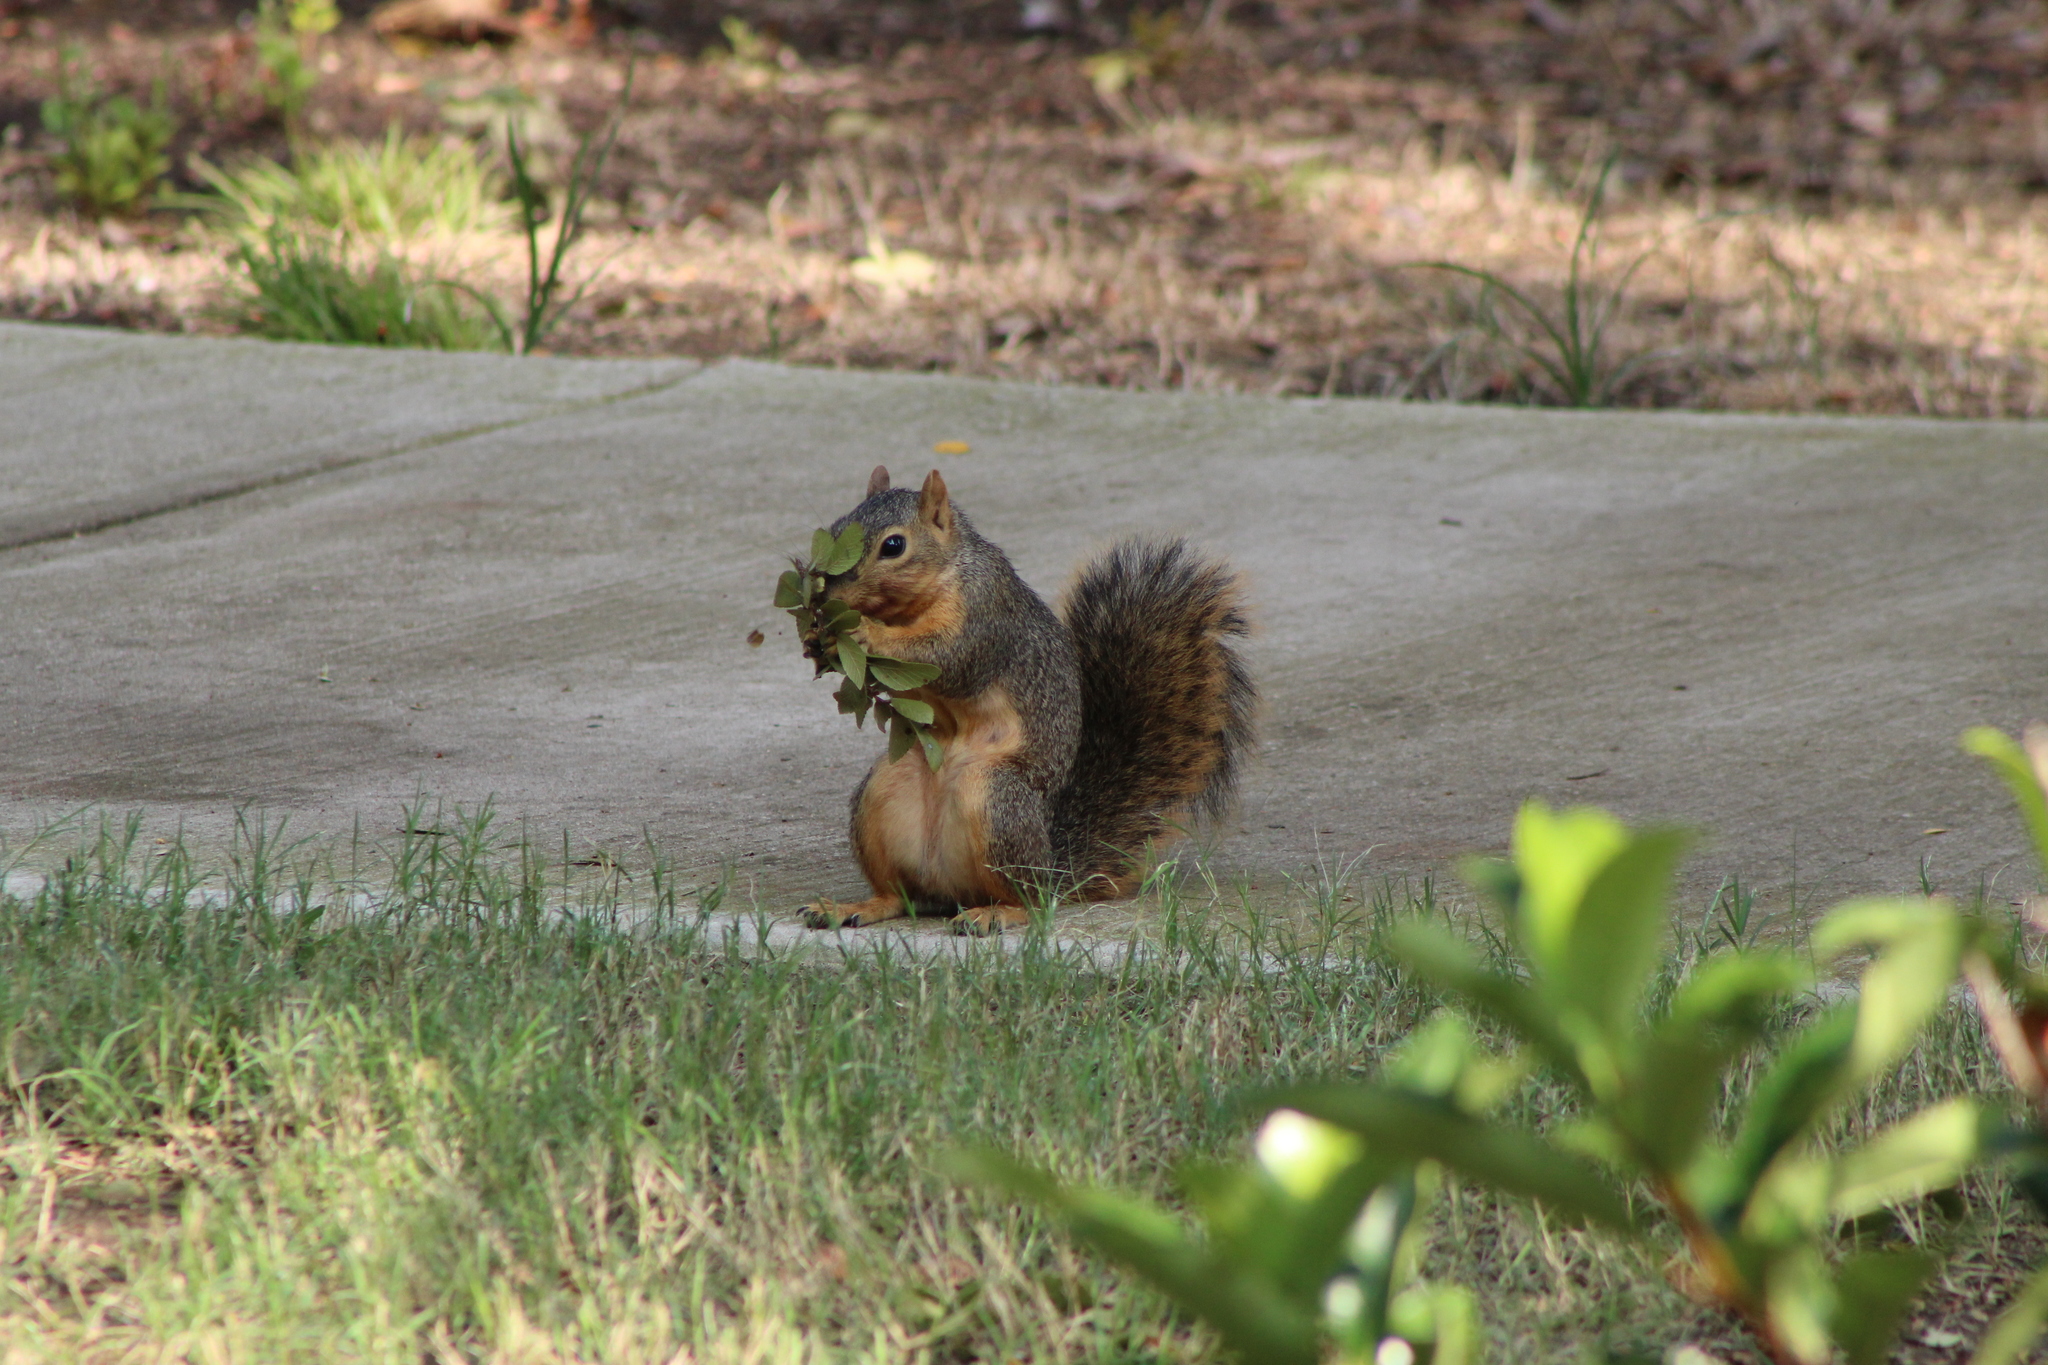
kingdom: Animalia
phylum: Chordata
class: Mammalia
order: Rodentia
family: Sciuridae
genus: Sciurus
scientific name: Sciurus niger
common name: Fox squirrel
